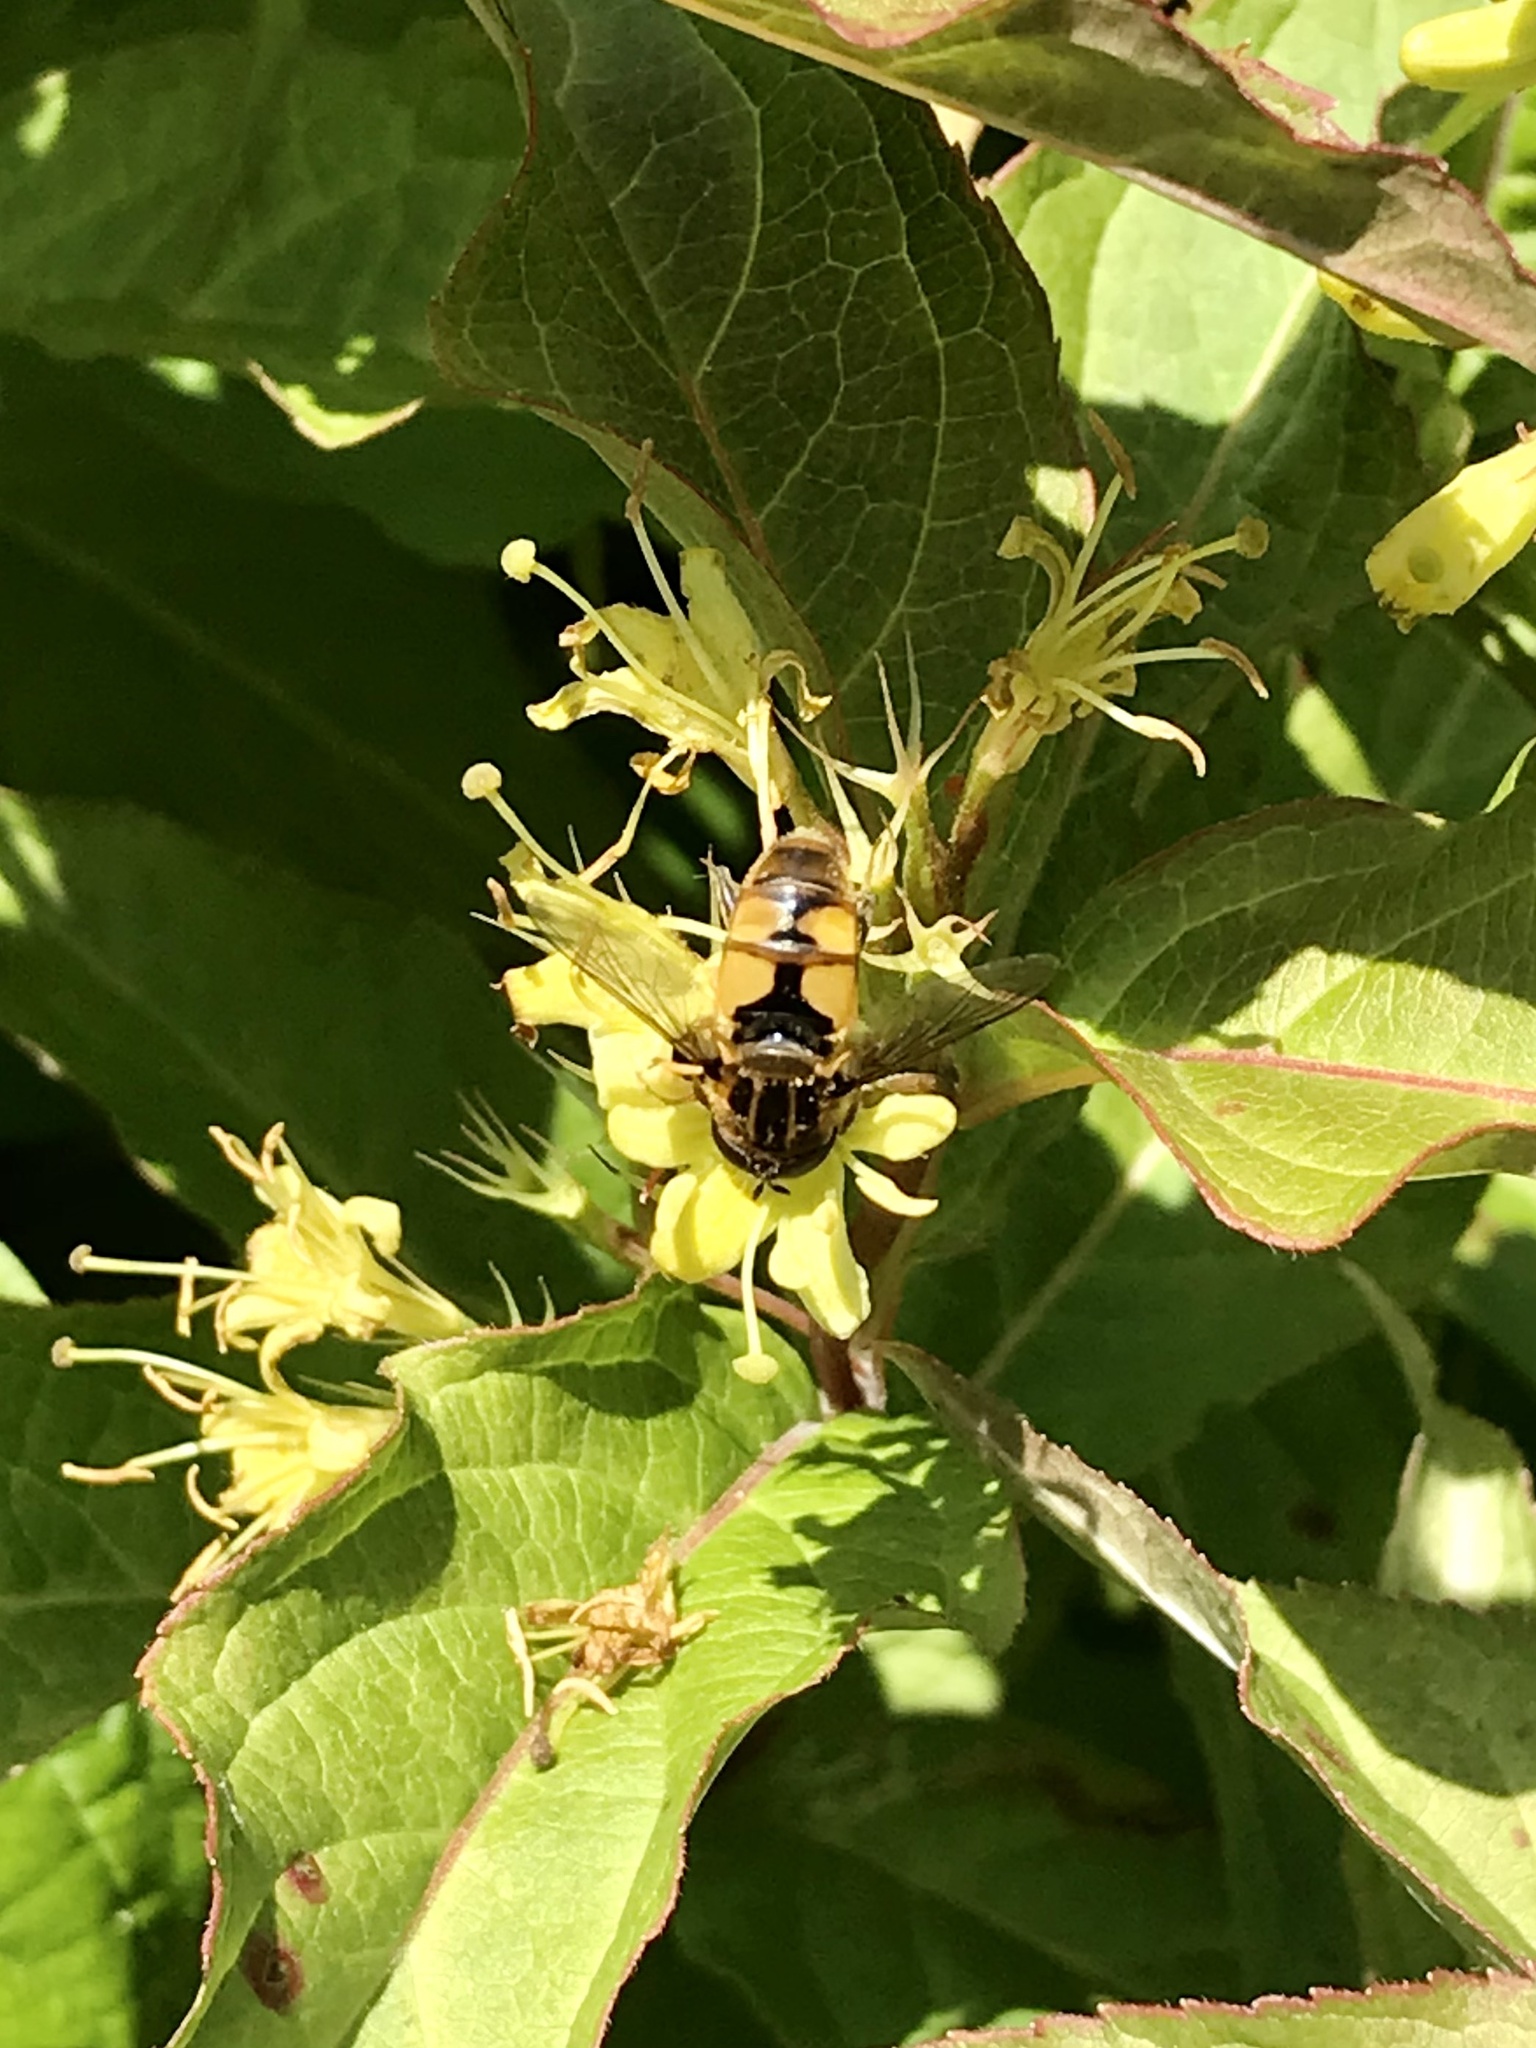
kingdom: Animalia
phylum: Arthropoda
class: Insecta
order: Diptera
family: Syrphidae
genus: Helophilus
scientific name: Helophilus hybridus
